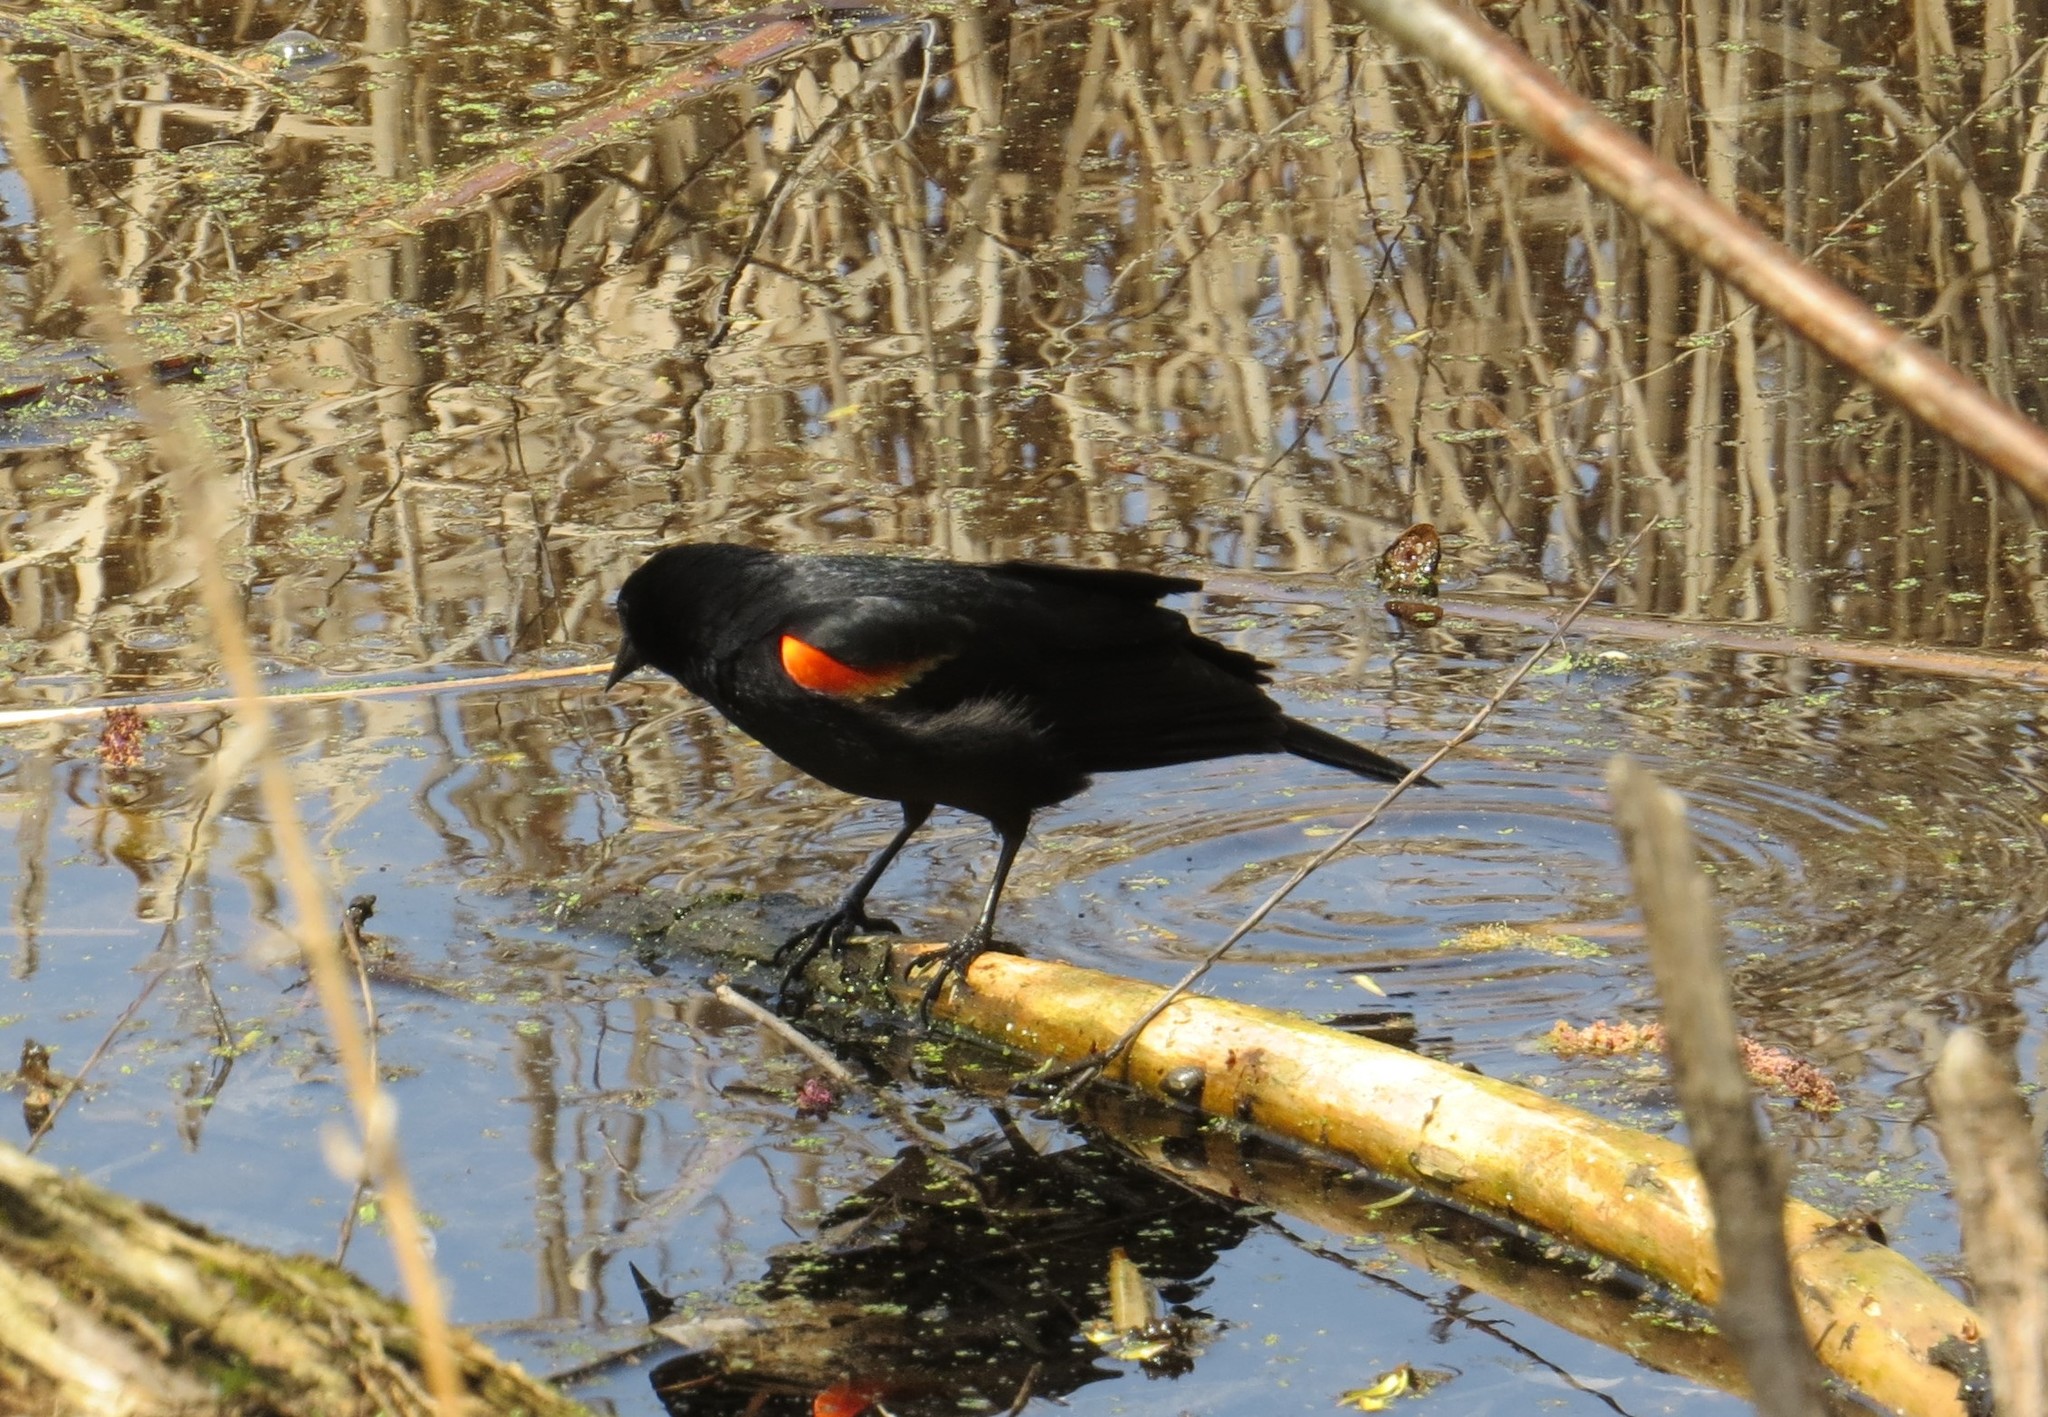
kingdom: Animalia
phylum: Chordata
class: Aves
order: Passeriformes
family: Icteridae
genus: Agelaius
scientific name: Agelaius phoeniceus
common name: Red-winged blackbird
